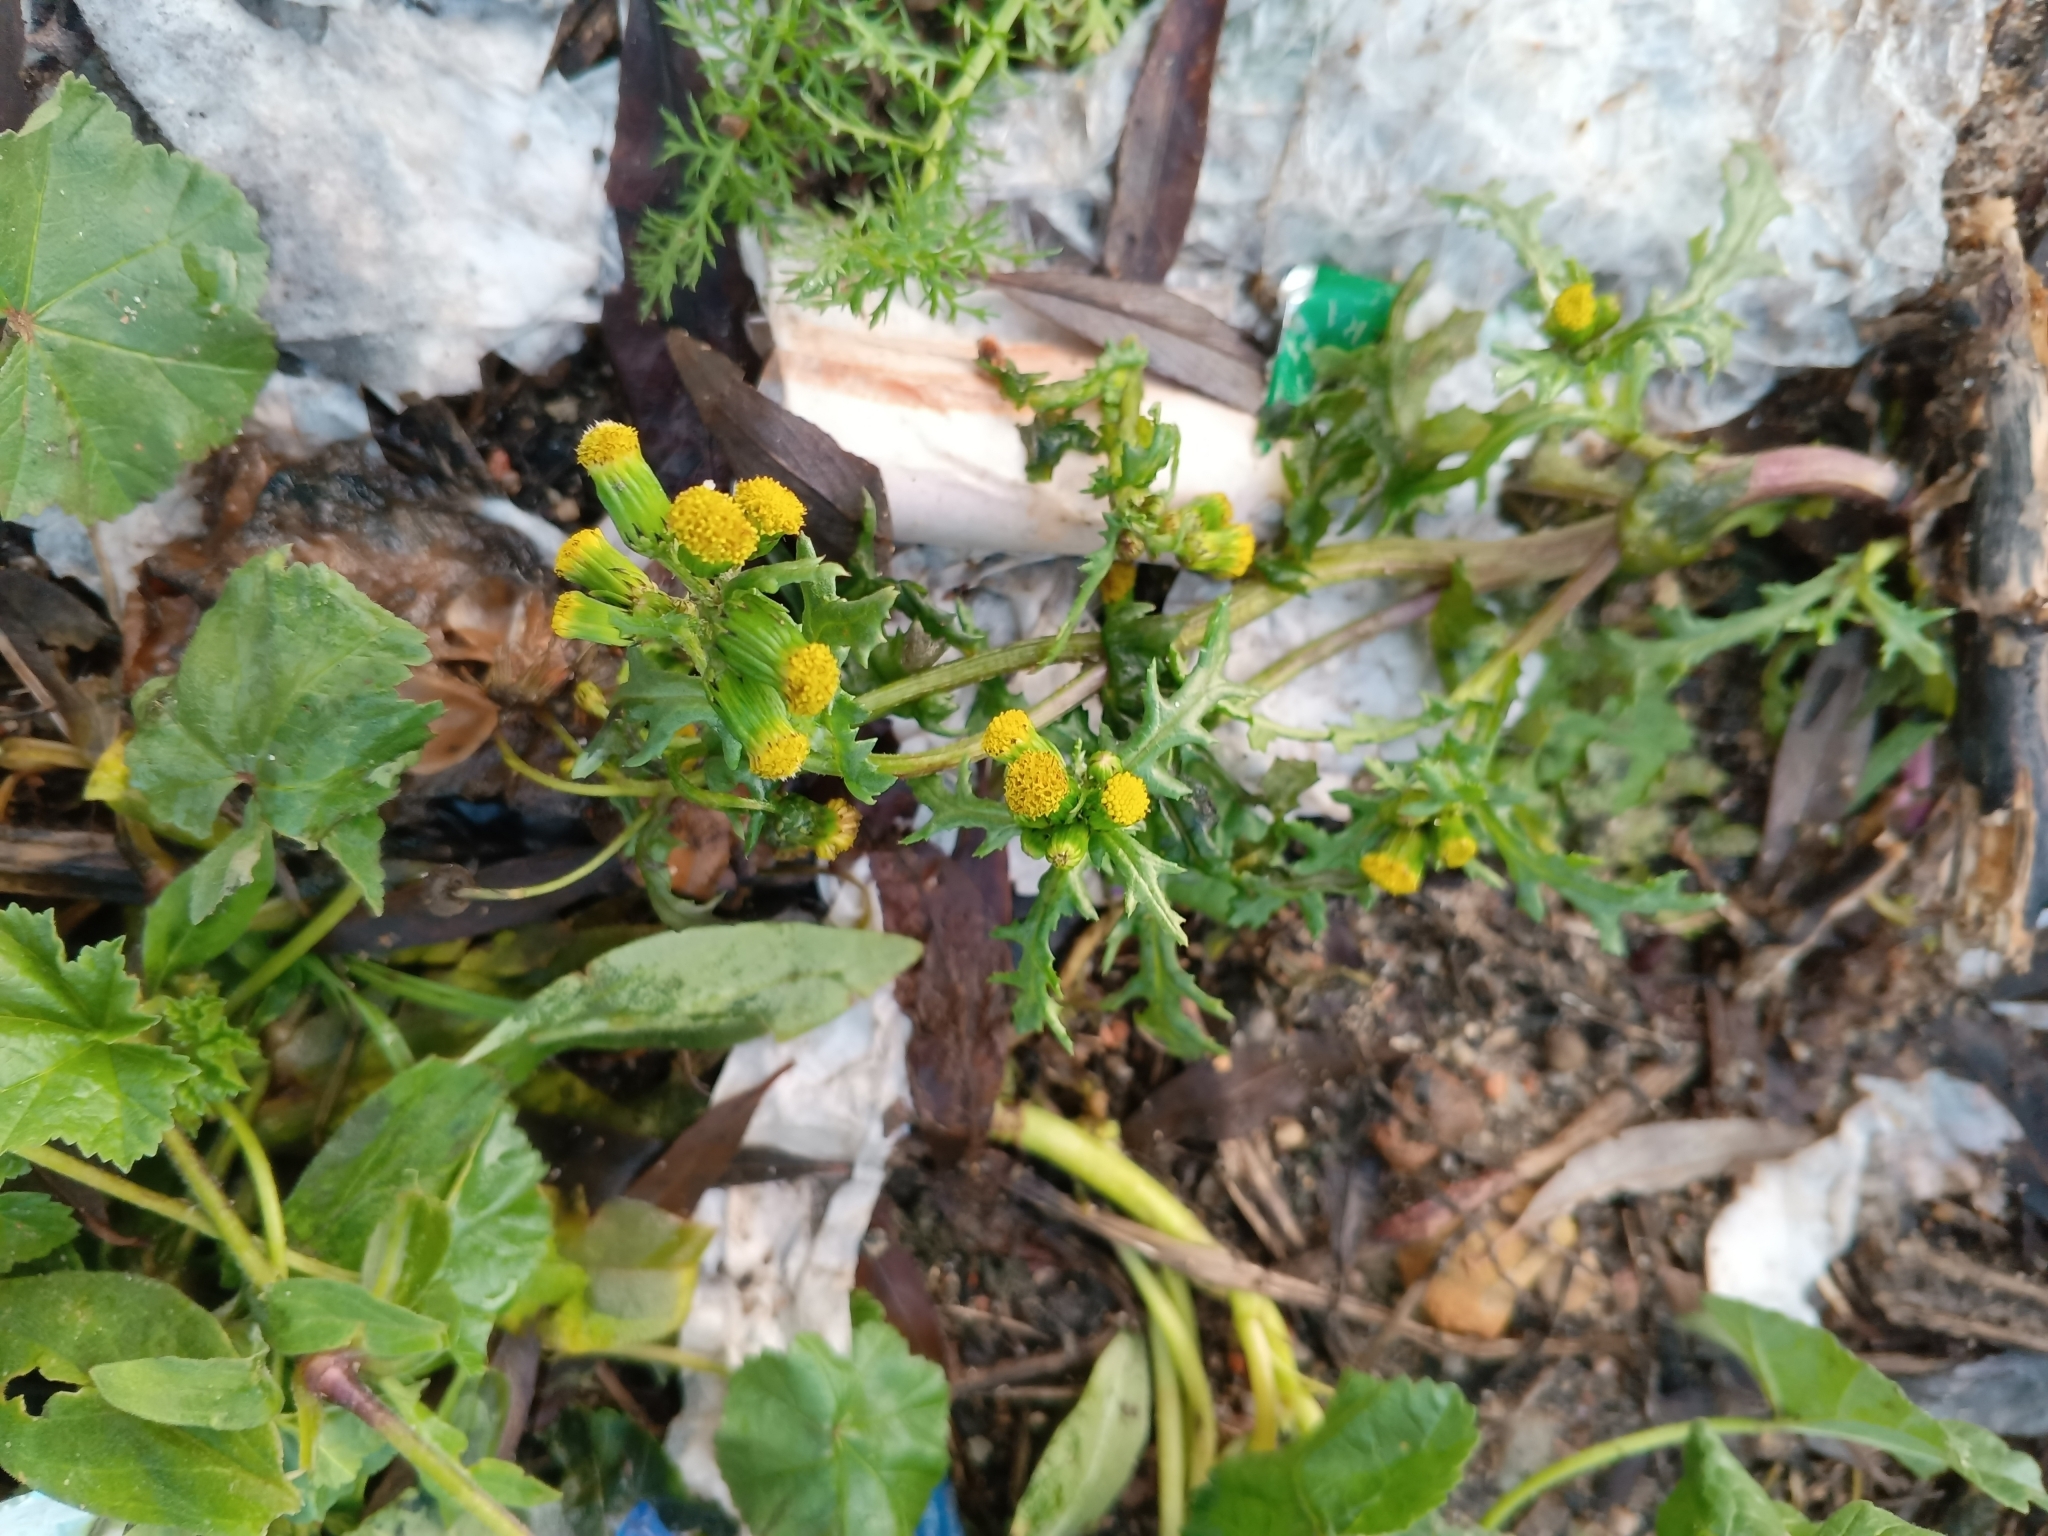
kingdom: Plantae
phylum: Tracheophyta
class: Magnoliopsida
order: Asterales
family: Asteraceae
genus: Senecio
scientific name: Senecio vulgaris
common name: Old-man-in-the-spring
